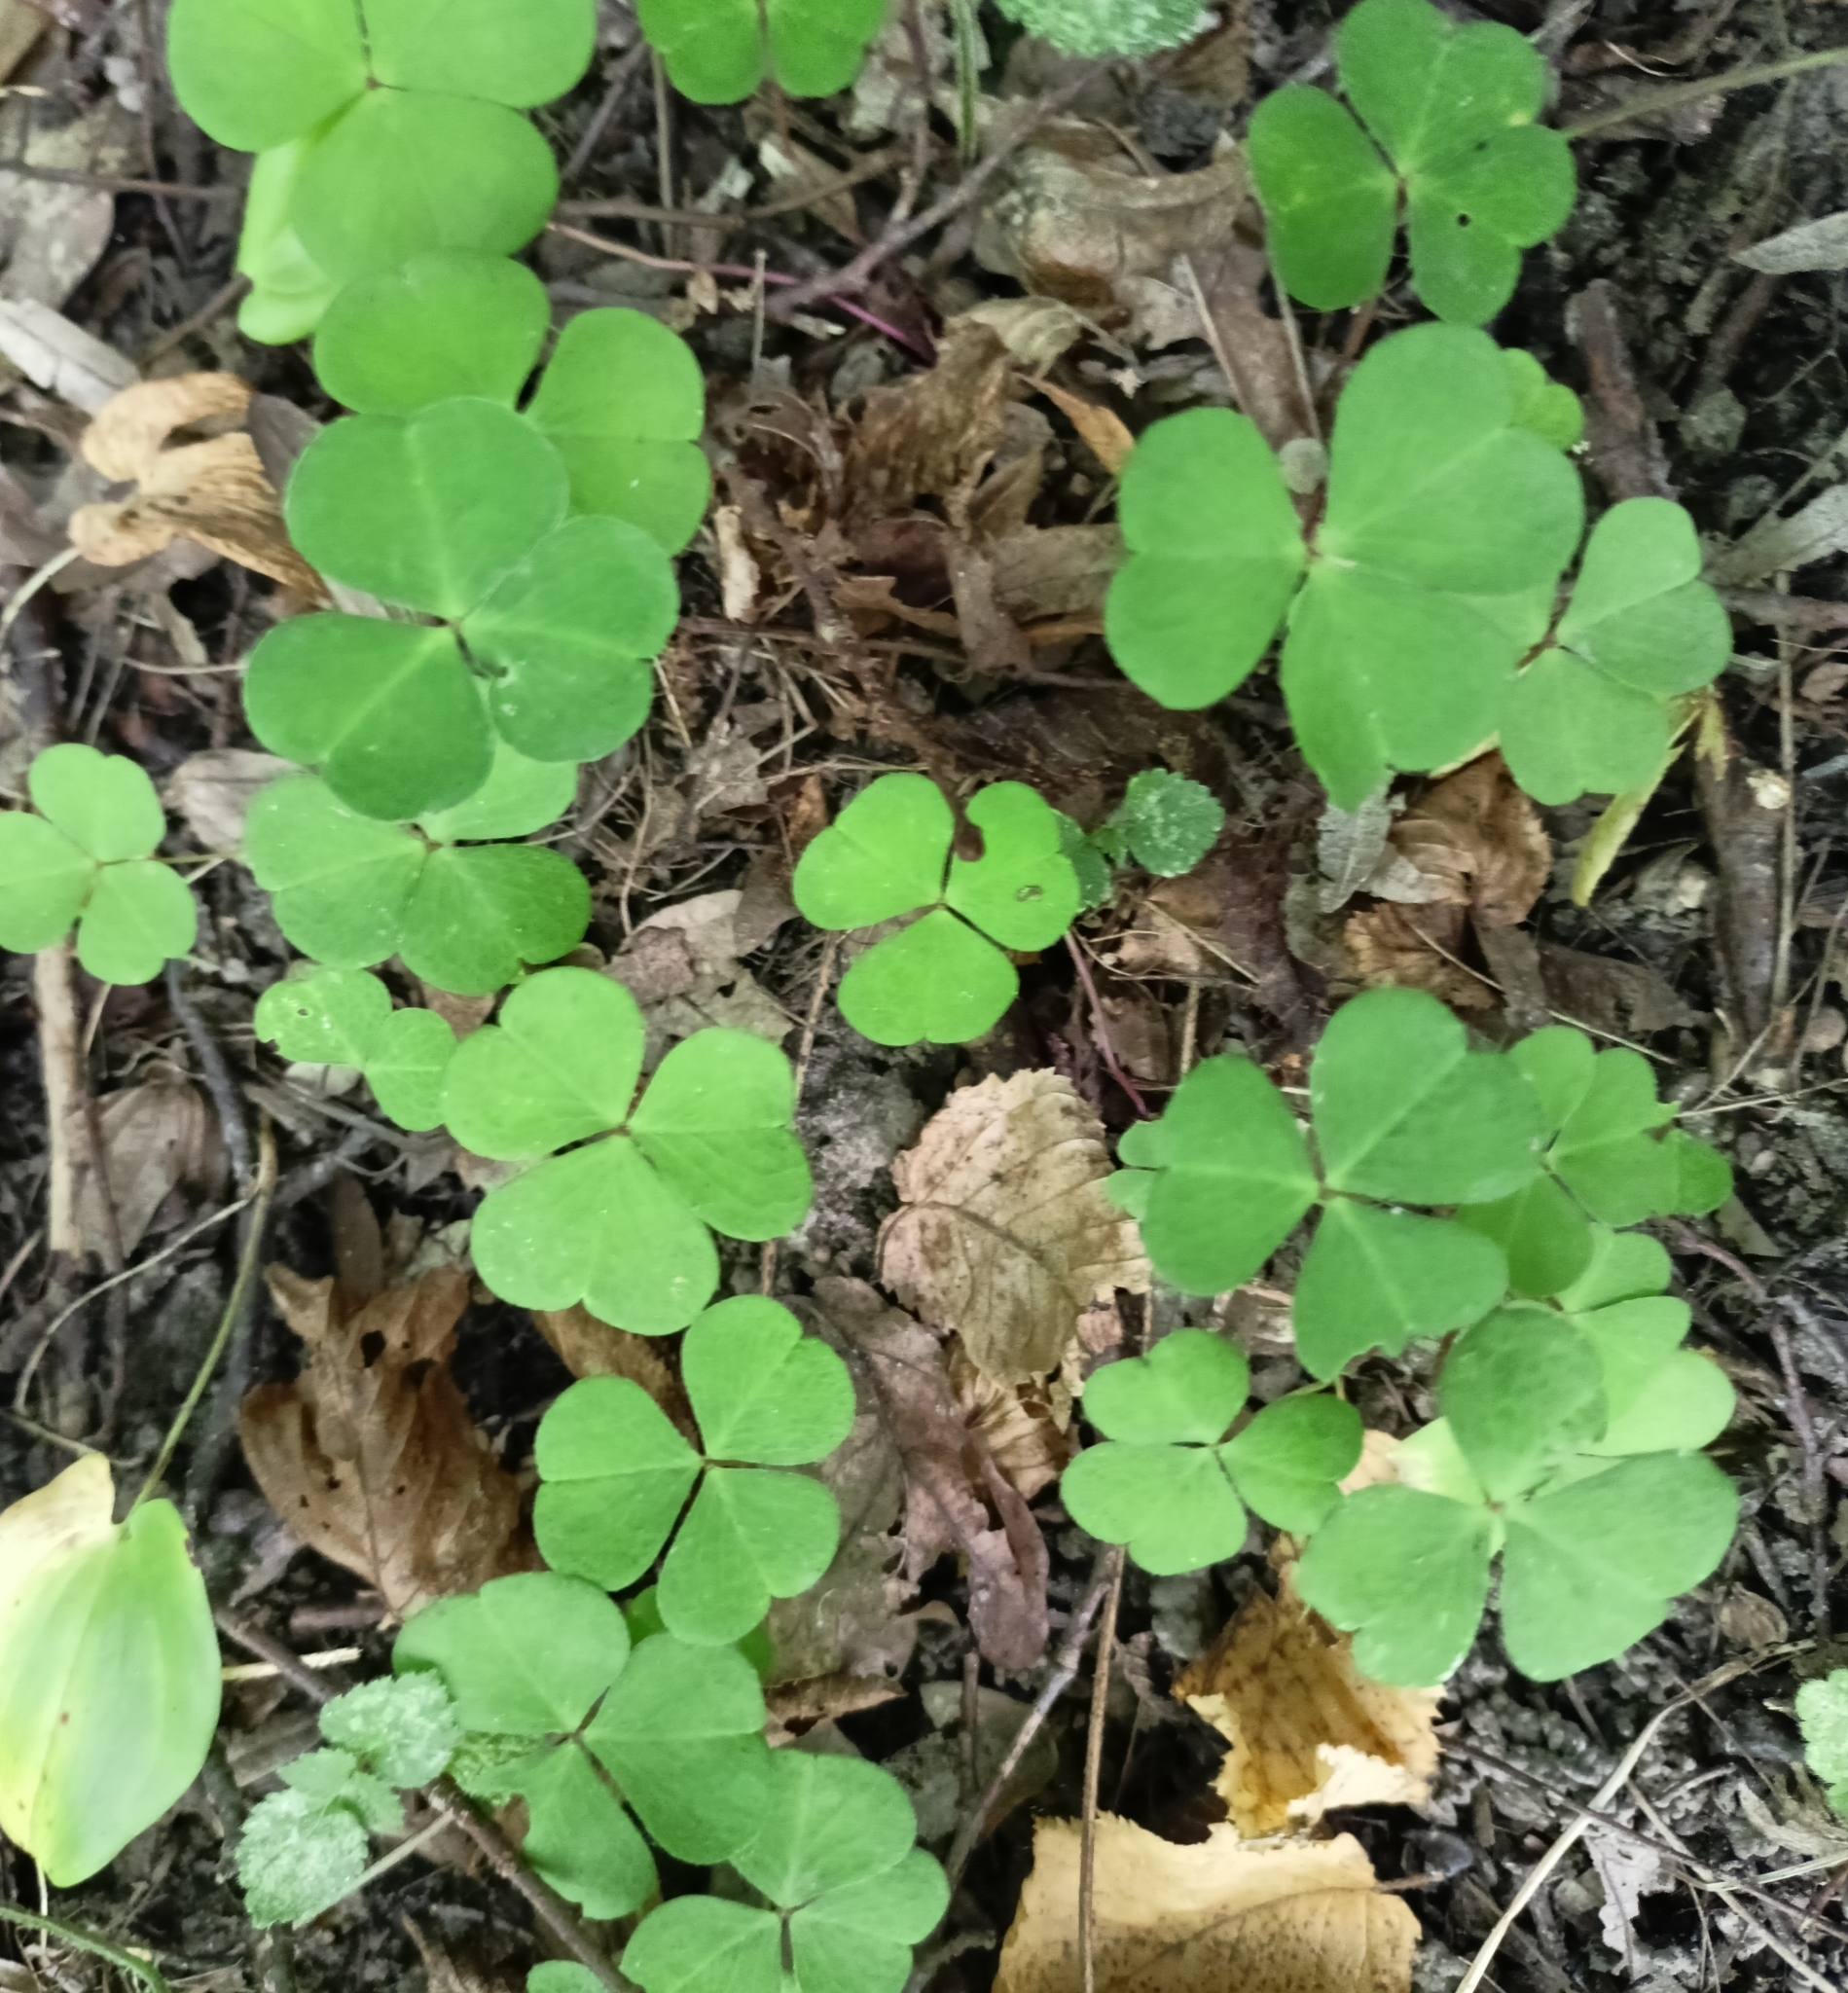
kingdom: Plantae
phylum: Tracheophyta
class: Magnoliopsida
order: Oxalidales
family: Oxalidaceae
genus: Oxalis
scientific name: Oxalis acetosella
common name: Wood-sorrel
